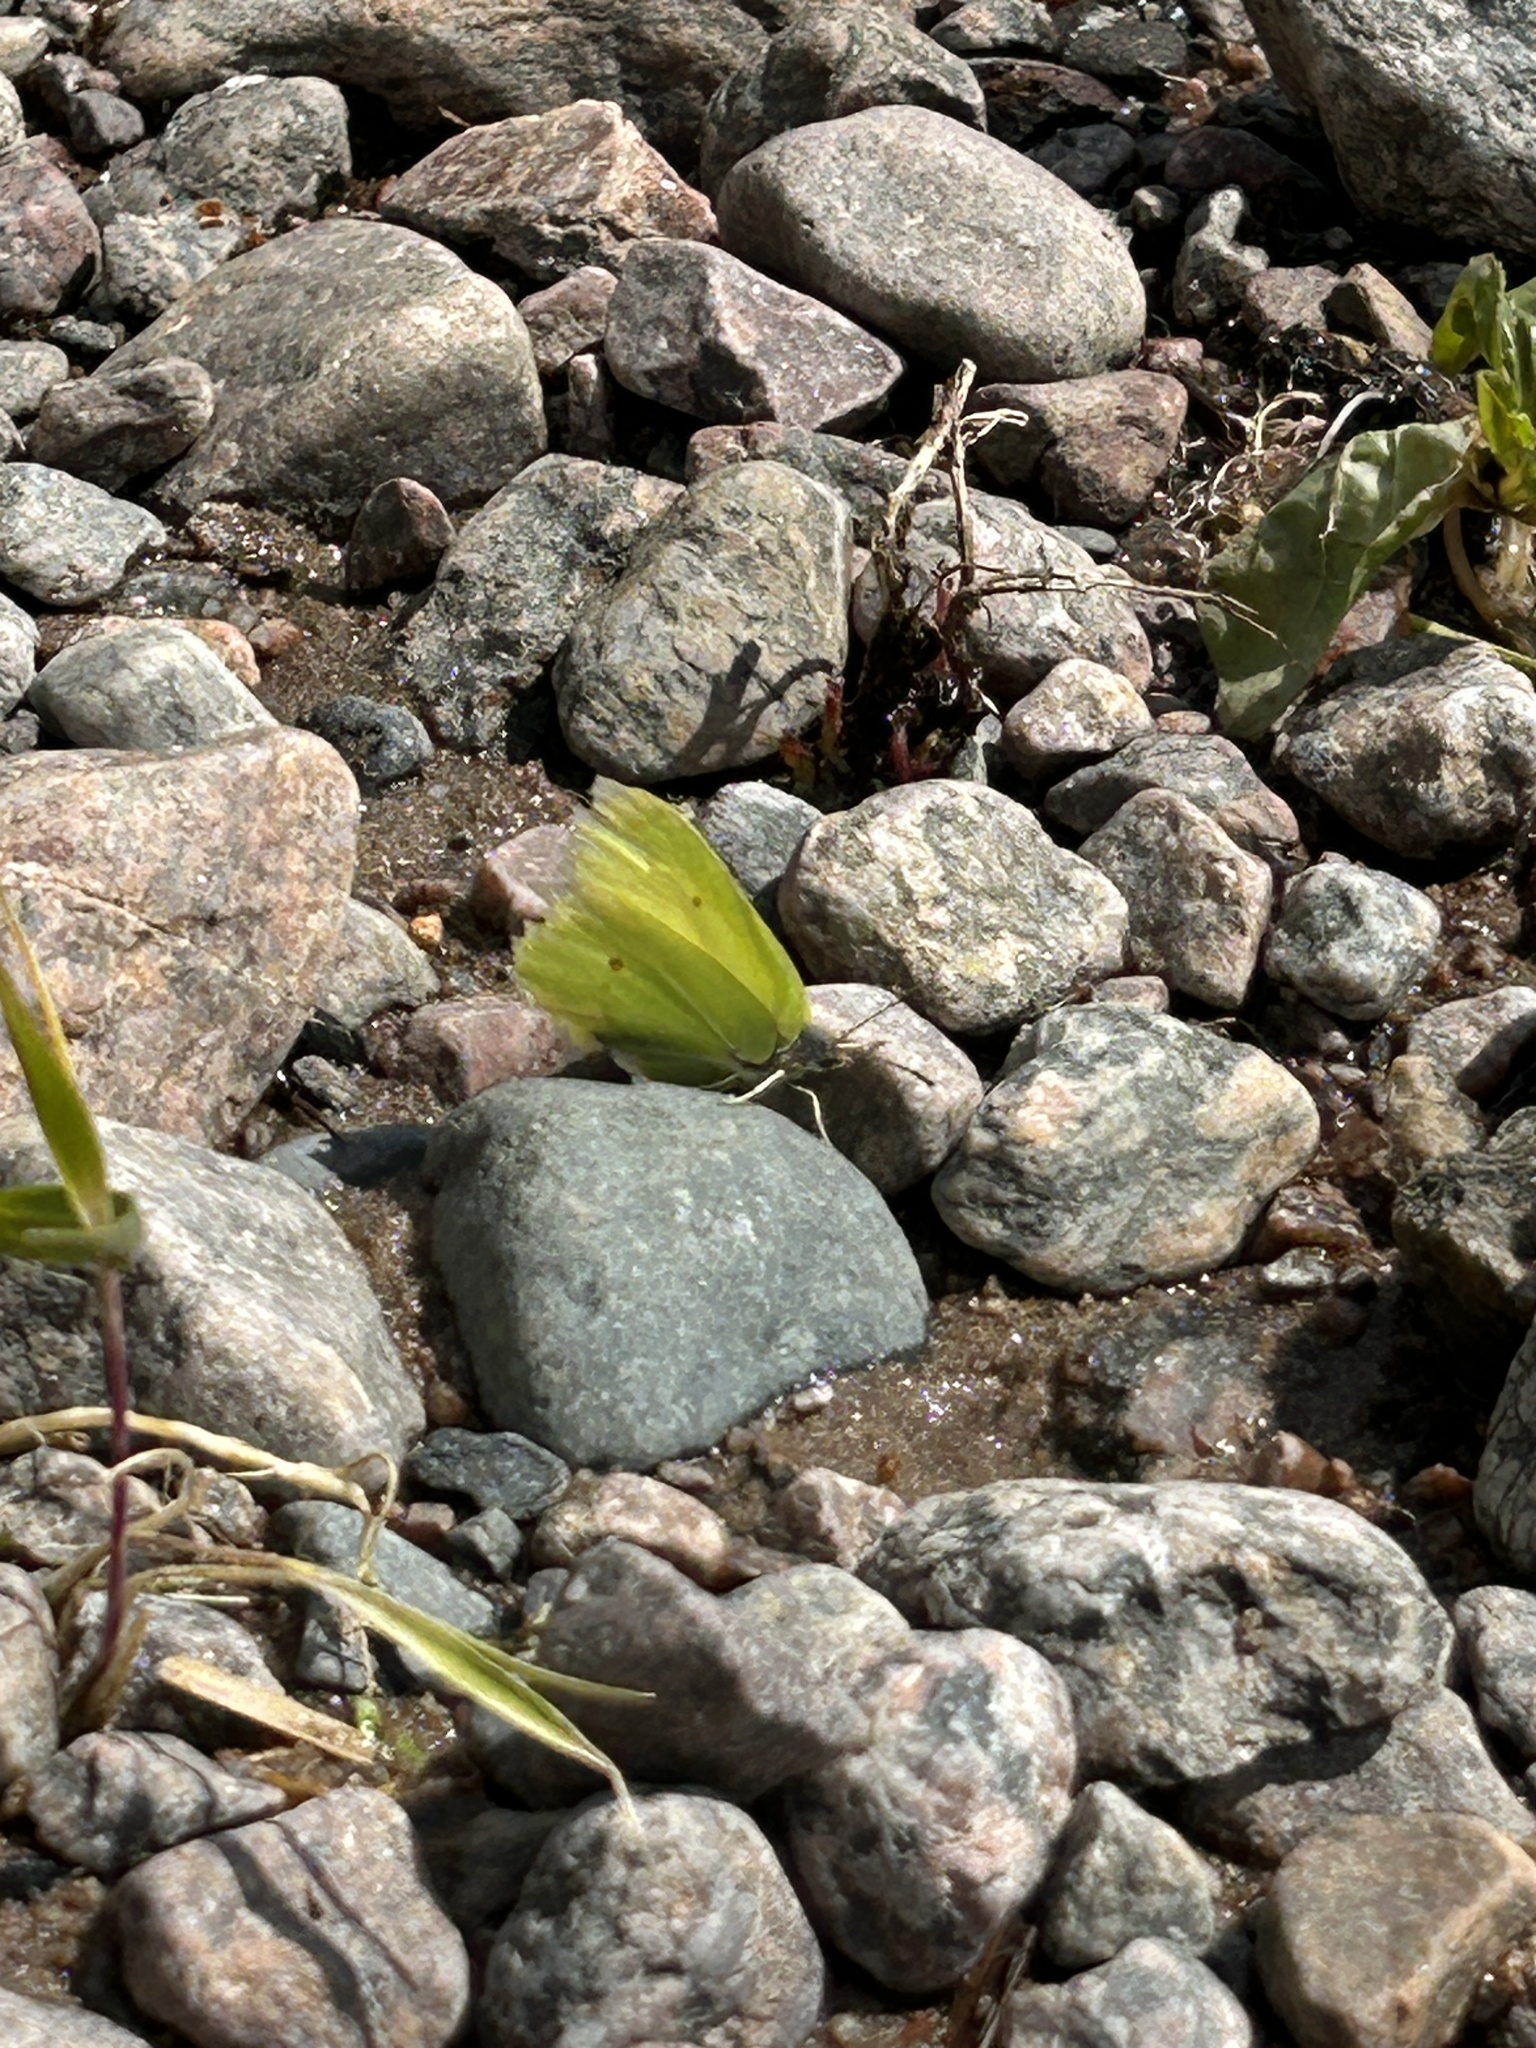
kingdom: Animalia
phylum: Arthropoda
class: Insecta
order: Lepidoptera
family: Pieridae
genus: Gonepteryx
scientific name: Gonepteryx rhamni
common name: Brimstone
